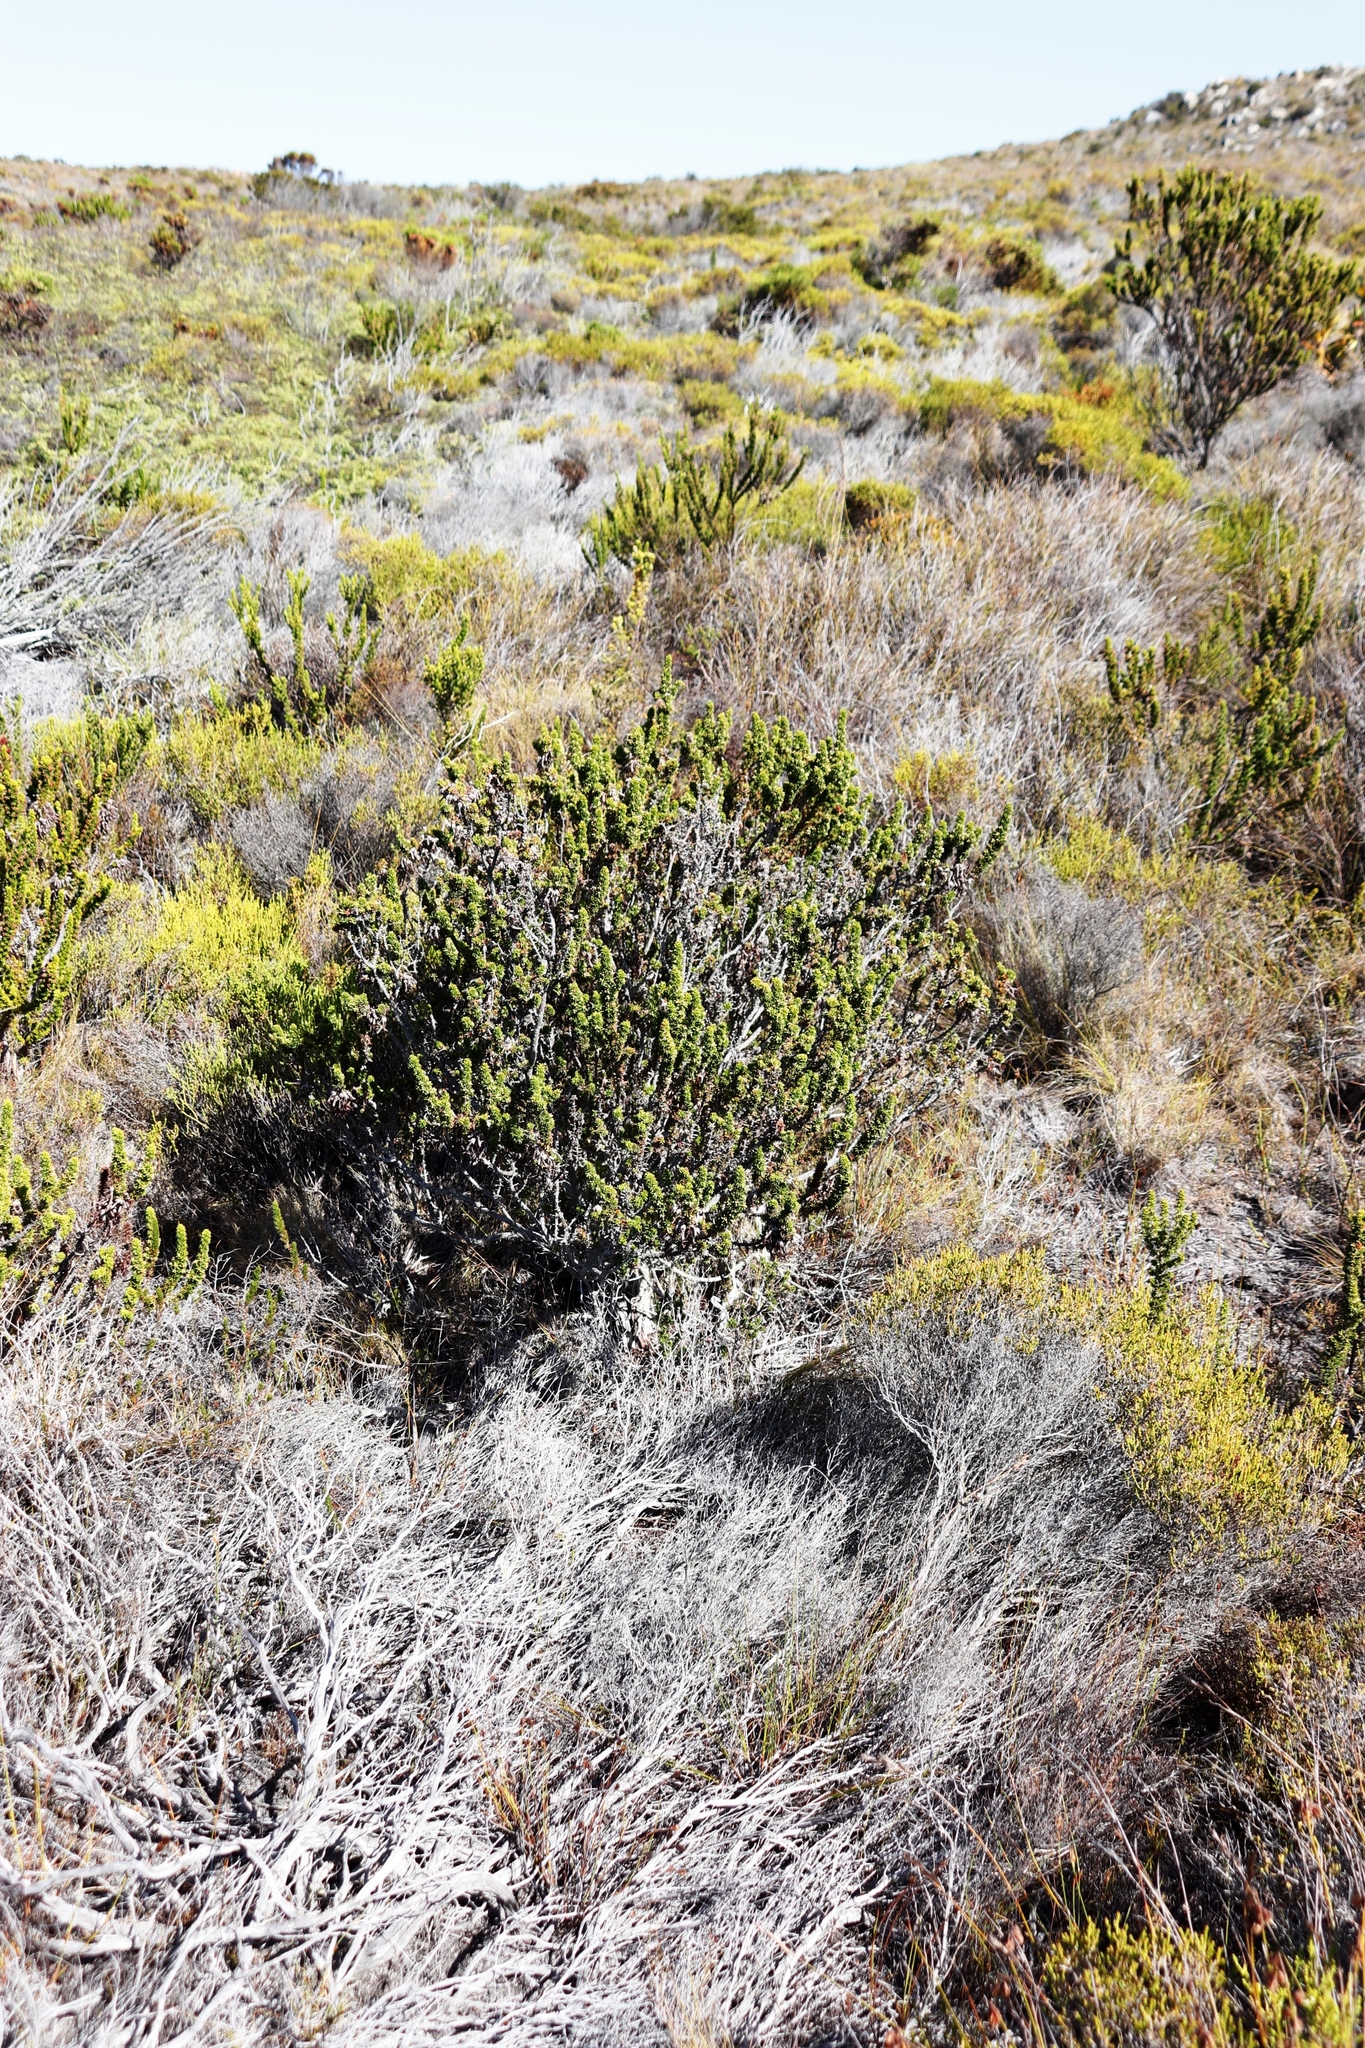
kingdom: Plantae
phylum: Tracheophyta
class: Magnoliopsida
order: Ericales
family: Ericaceae
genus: Erica
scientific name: Erica coccinea
